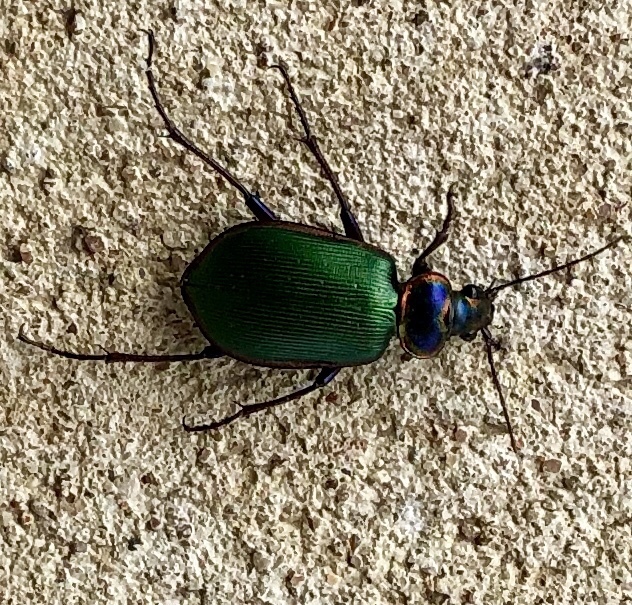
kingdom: Animalia
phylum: Arthropoda
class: Insecta
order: Coleoptera
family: Carabidae
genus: Calosoma
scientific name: Calosoma scrutator
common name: Fiery searcher beetle
